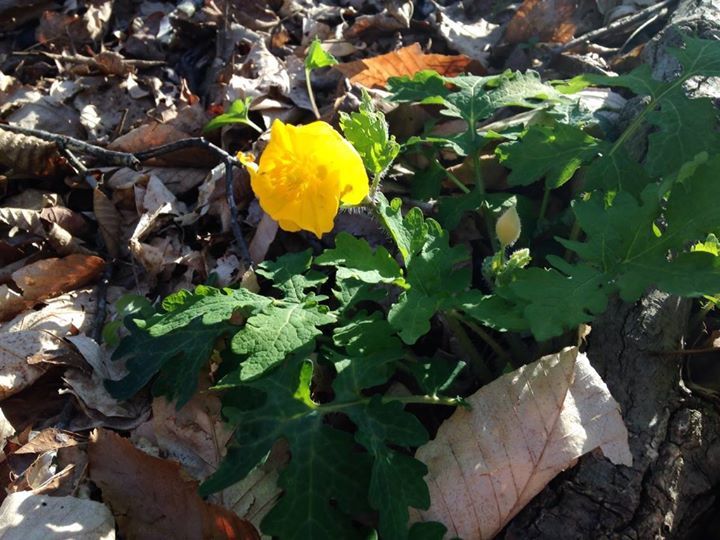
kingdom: Plantae
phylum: Tracheophyta
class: Magnoliopsida
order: Ranunculales
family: Papaveraceae
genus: Stylophorum
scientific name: Stylophorum diphyllum
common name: Celandine poppy
